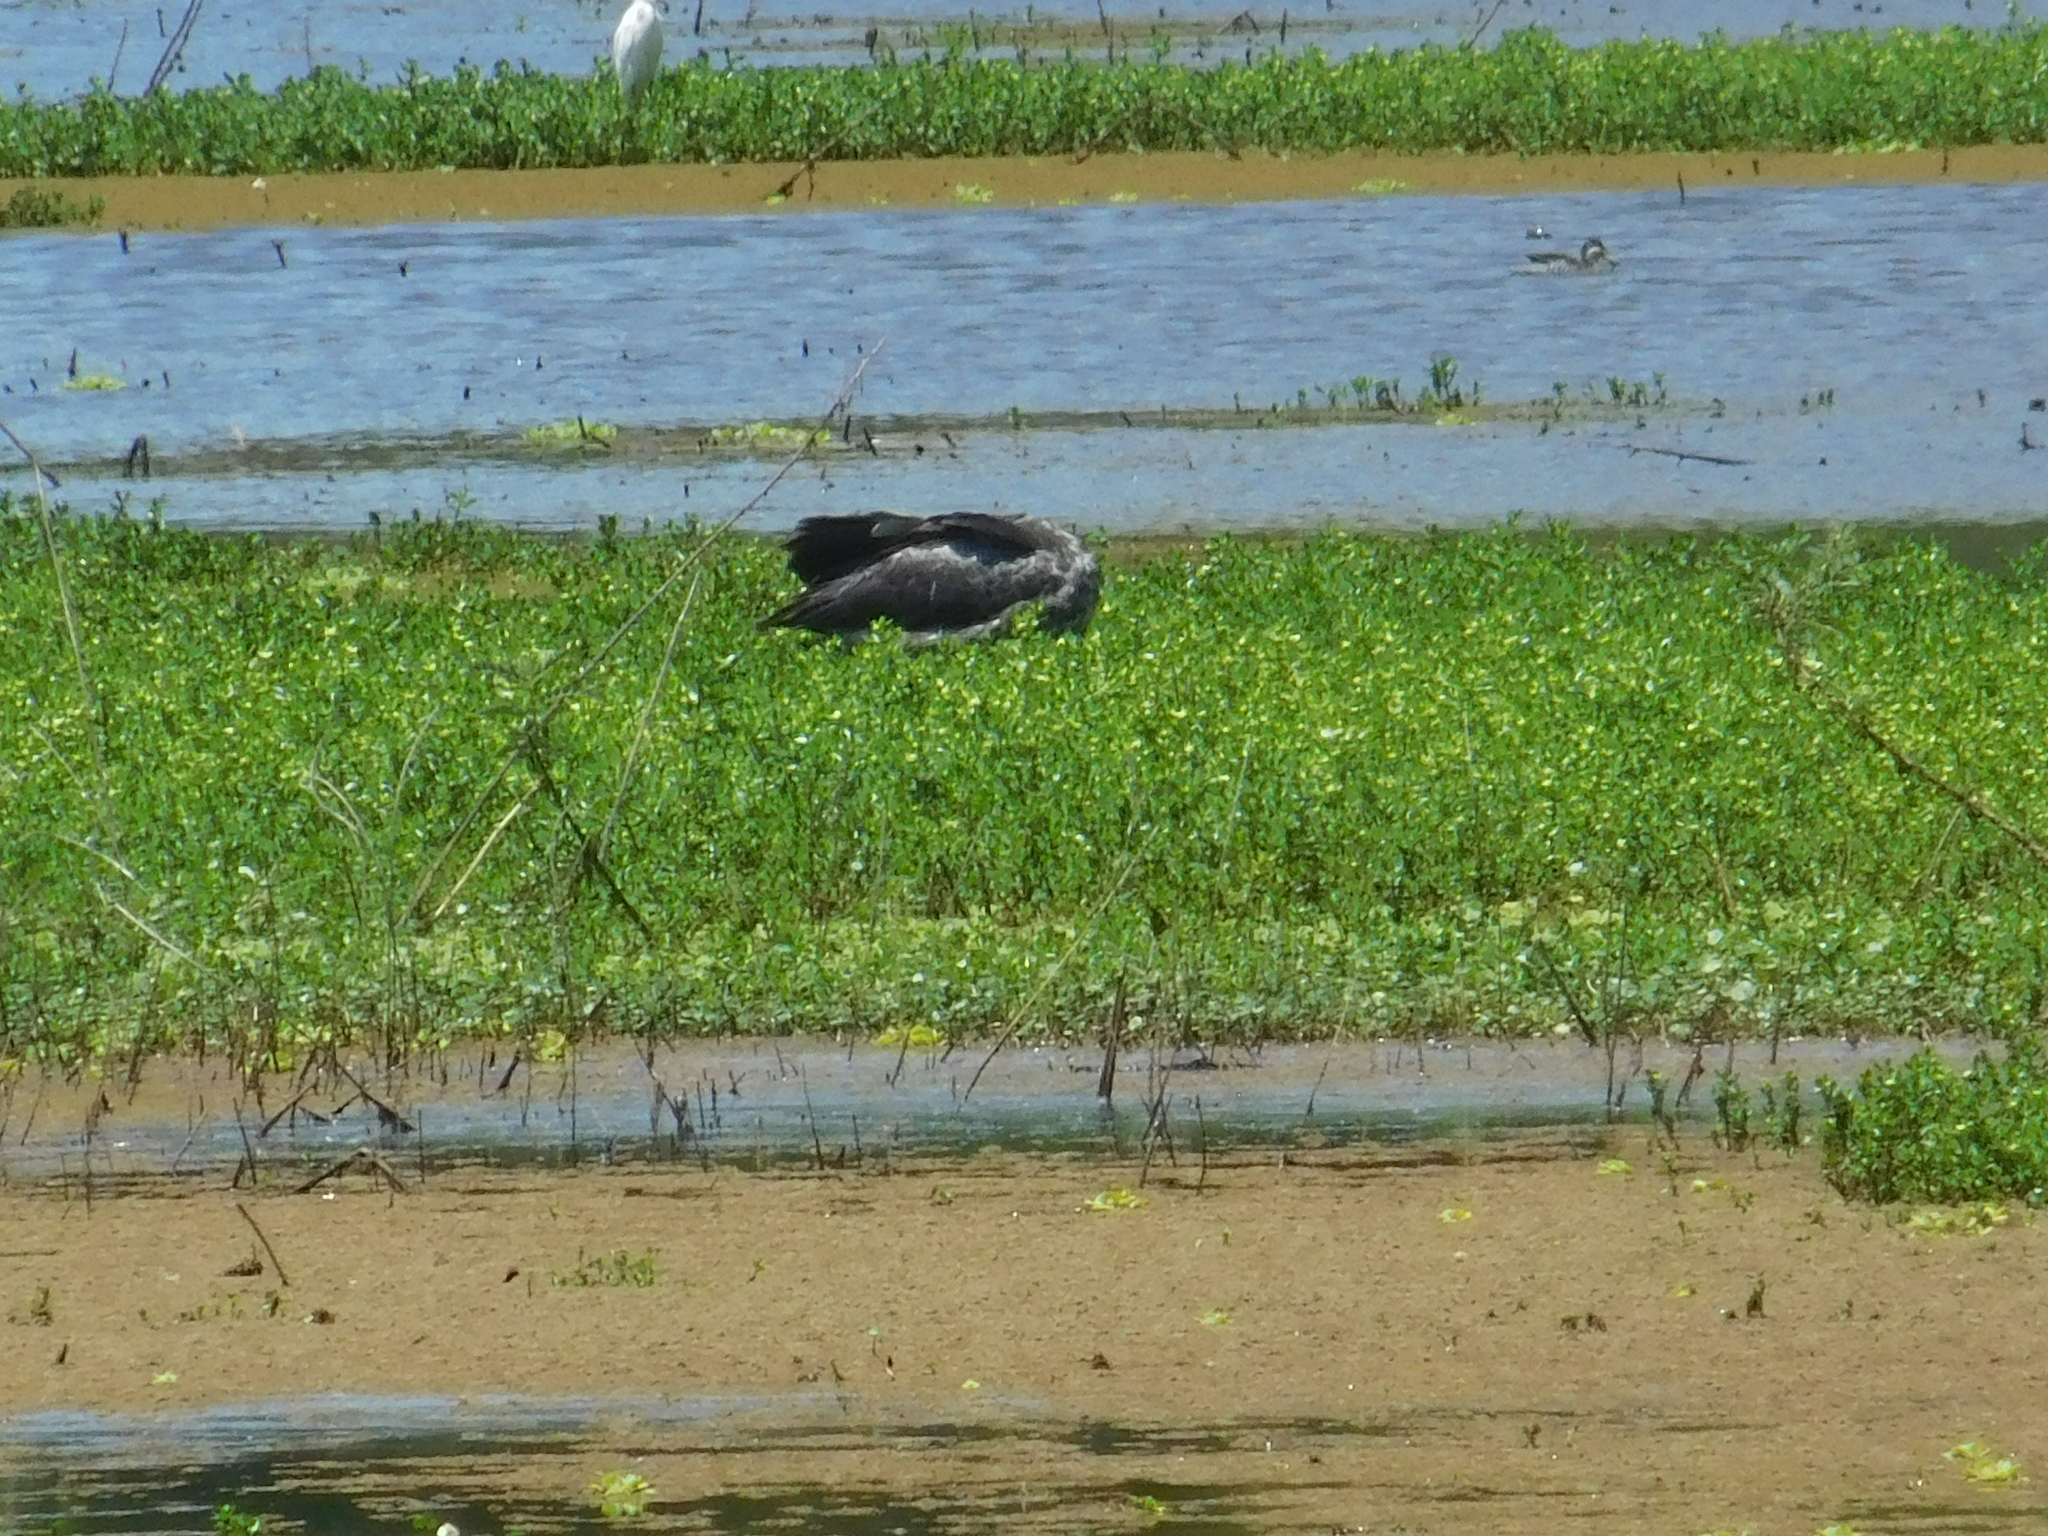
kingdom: Animalia
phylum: Chordata
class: Aves
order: Anseriformes
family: Anhimidae
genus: Chauna
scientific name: Chauna torquata
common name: Southern screamer
